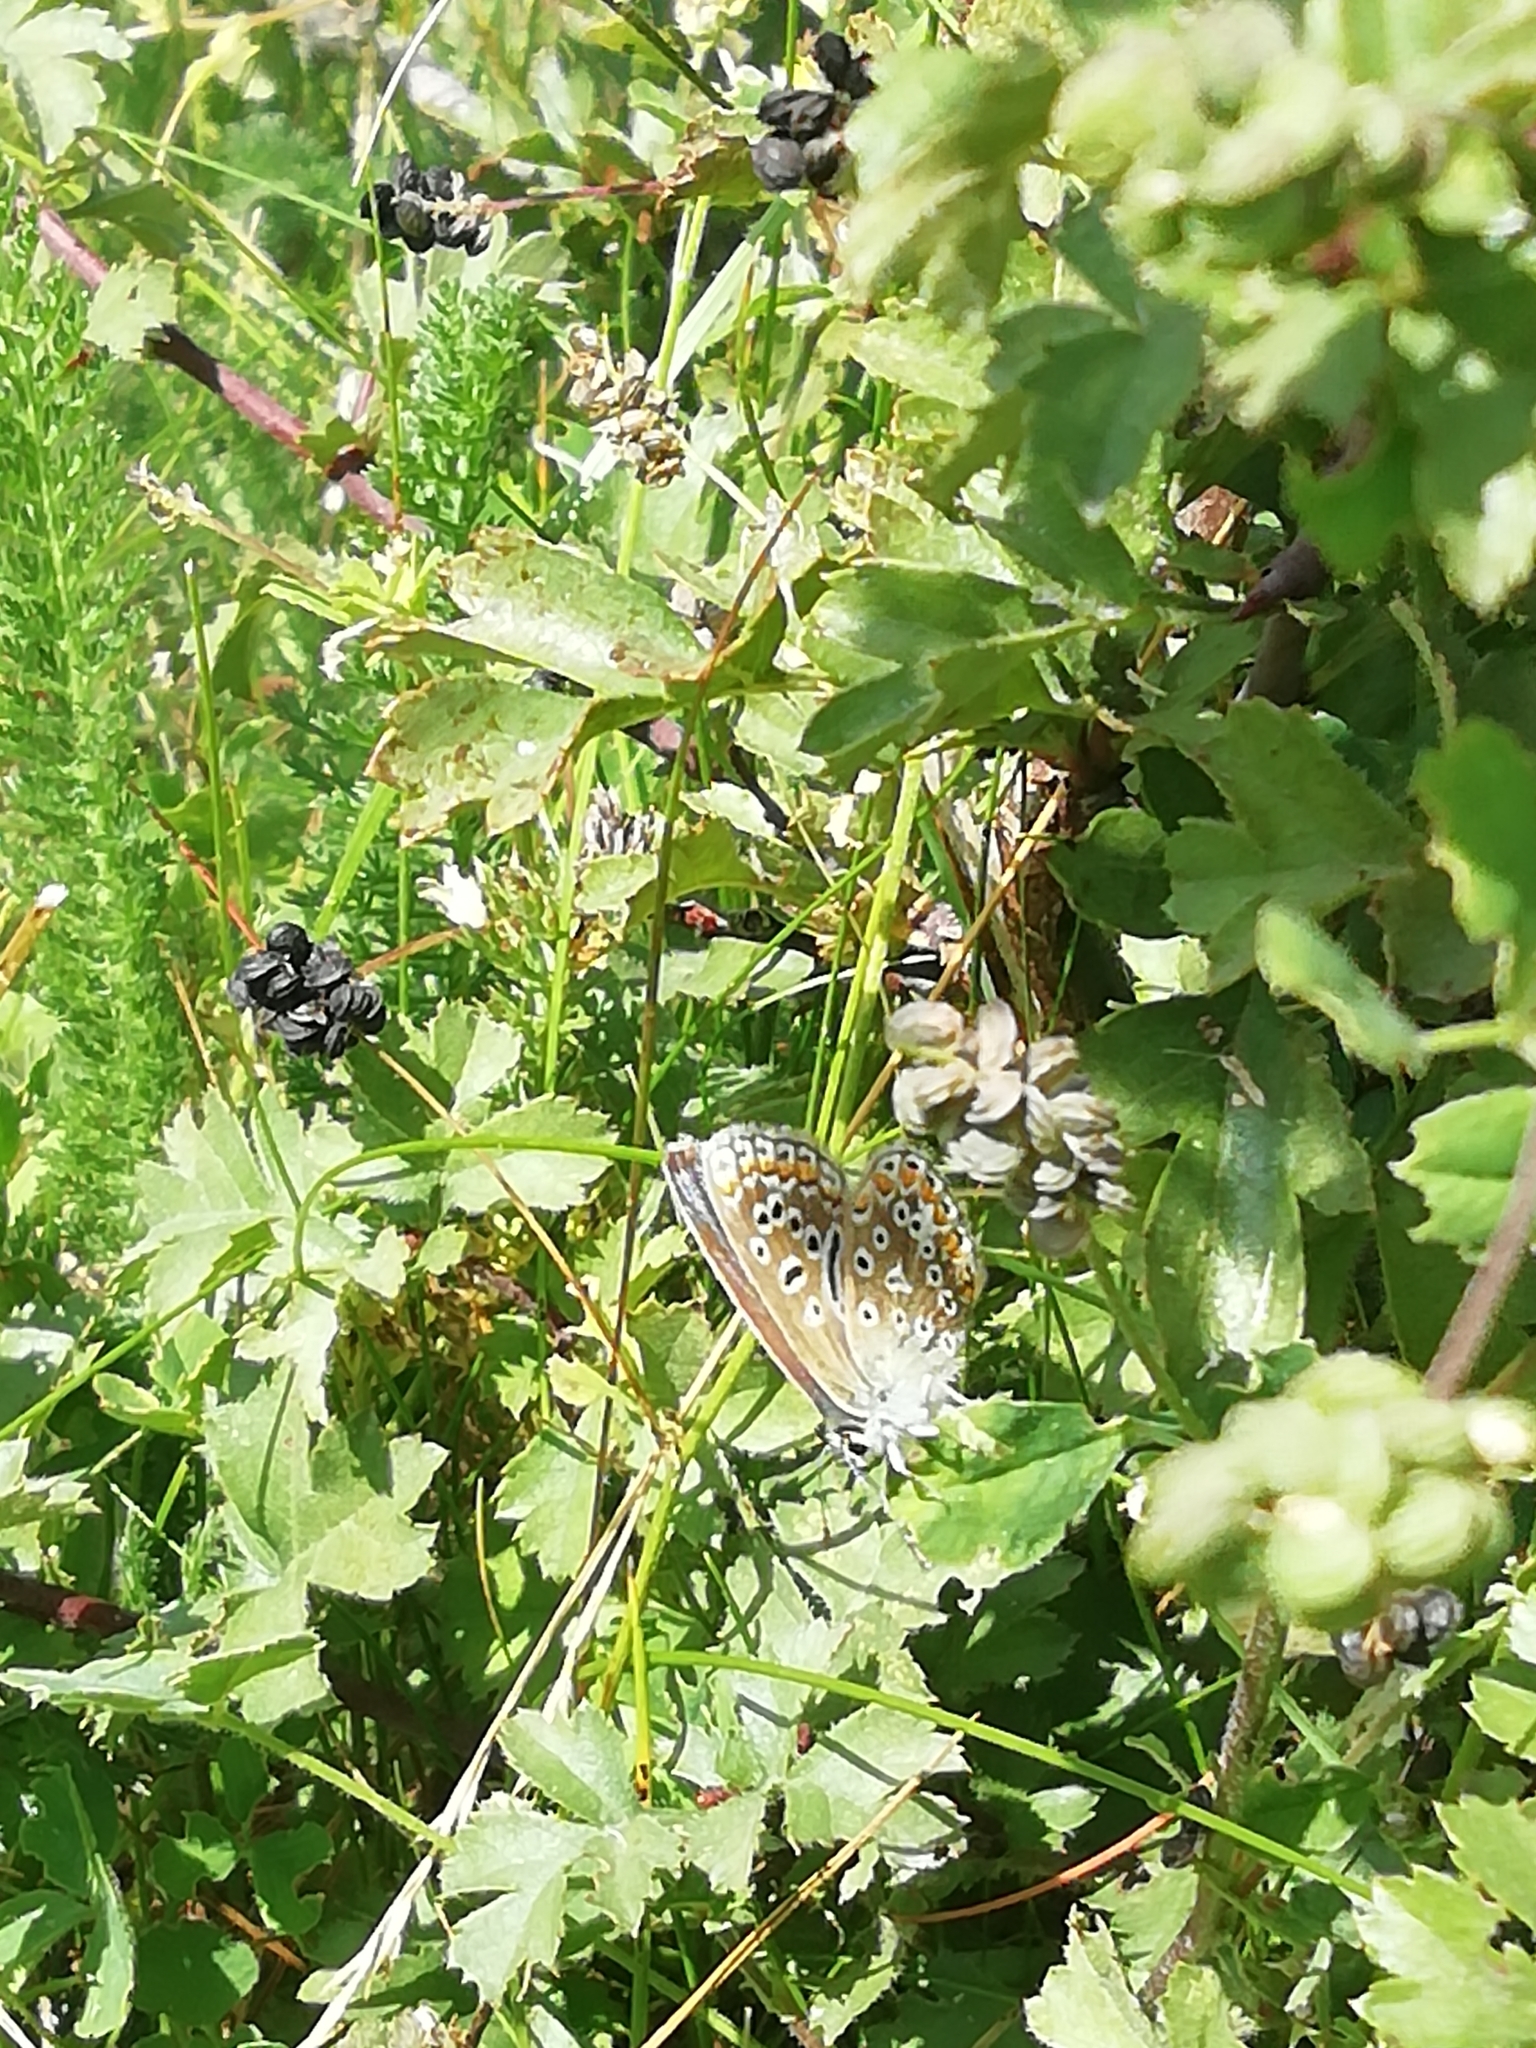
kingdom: Animalia
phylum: Arthropoda
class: Insecta
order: Lepidoptera
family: Lycaenidae
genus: Polyommatus
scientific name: Polyommatus icarus
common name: Common blue
